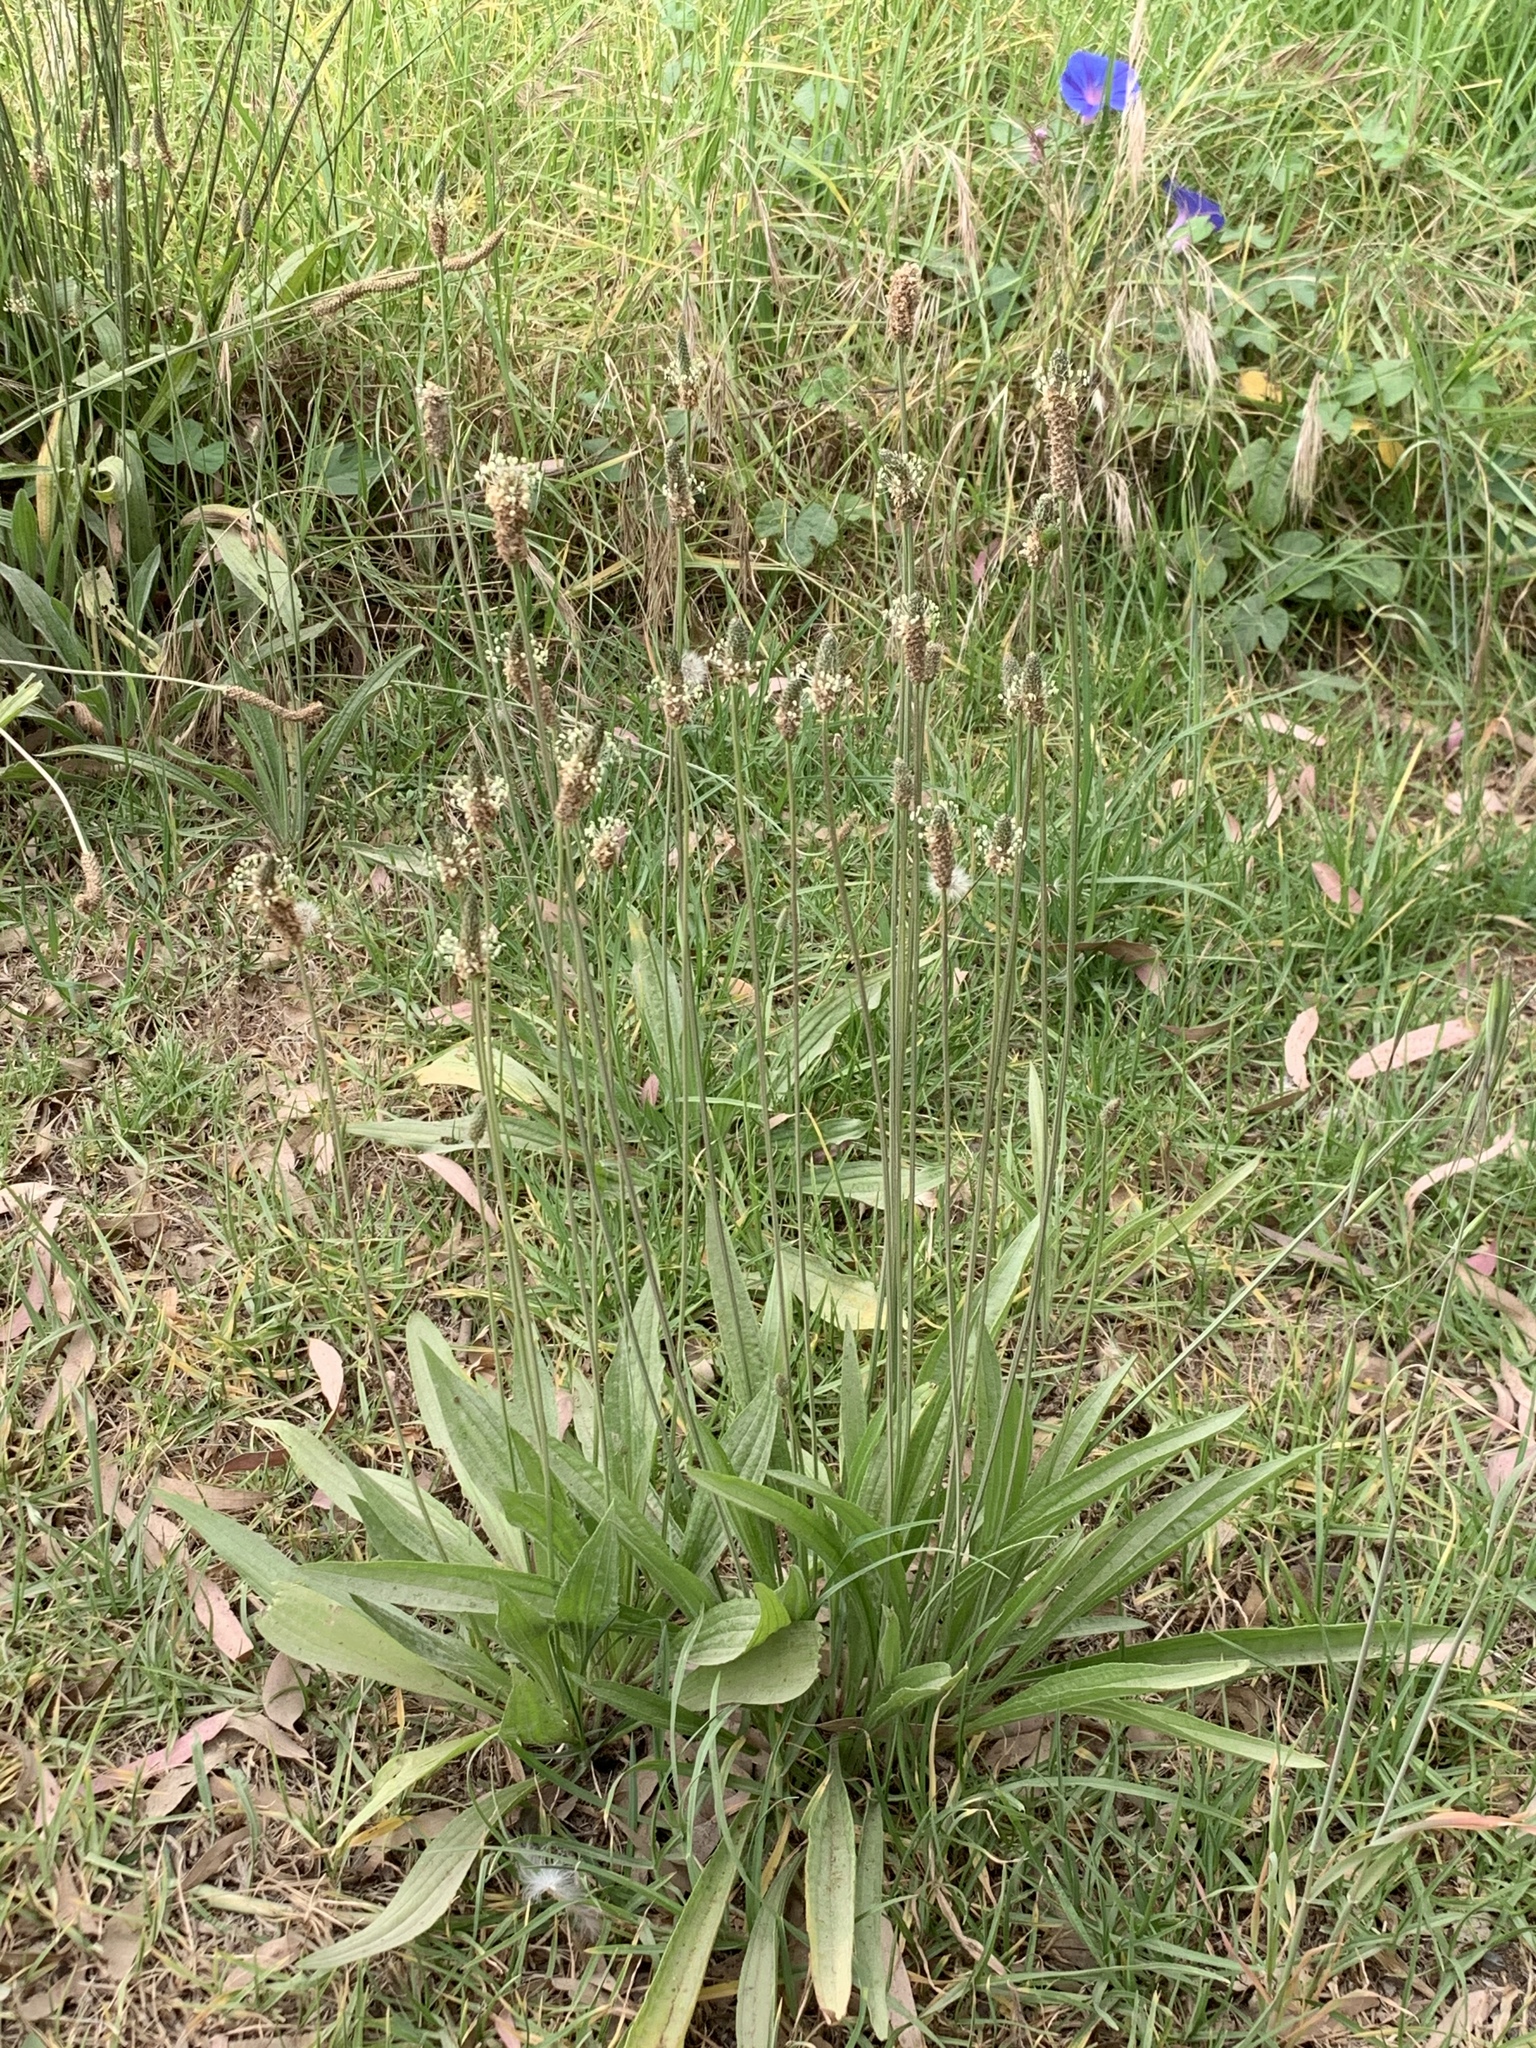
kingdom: Plantae
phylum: Tracheophyta
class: Magnoliopsida
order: Lamiales
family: Plantaginaceae
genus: Plantago
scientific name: Plantago lanceolata
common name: Ribwort plantain
